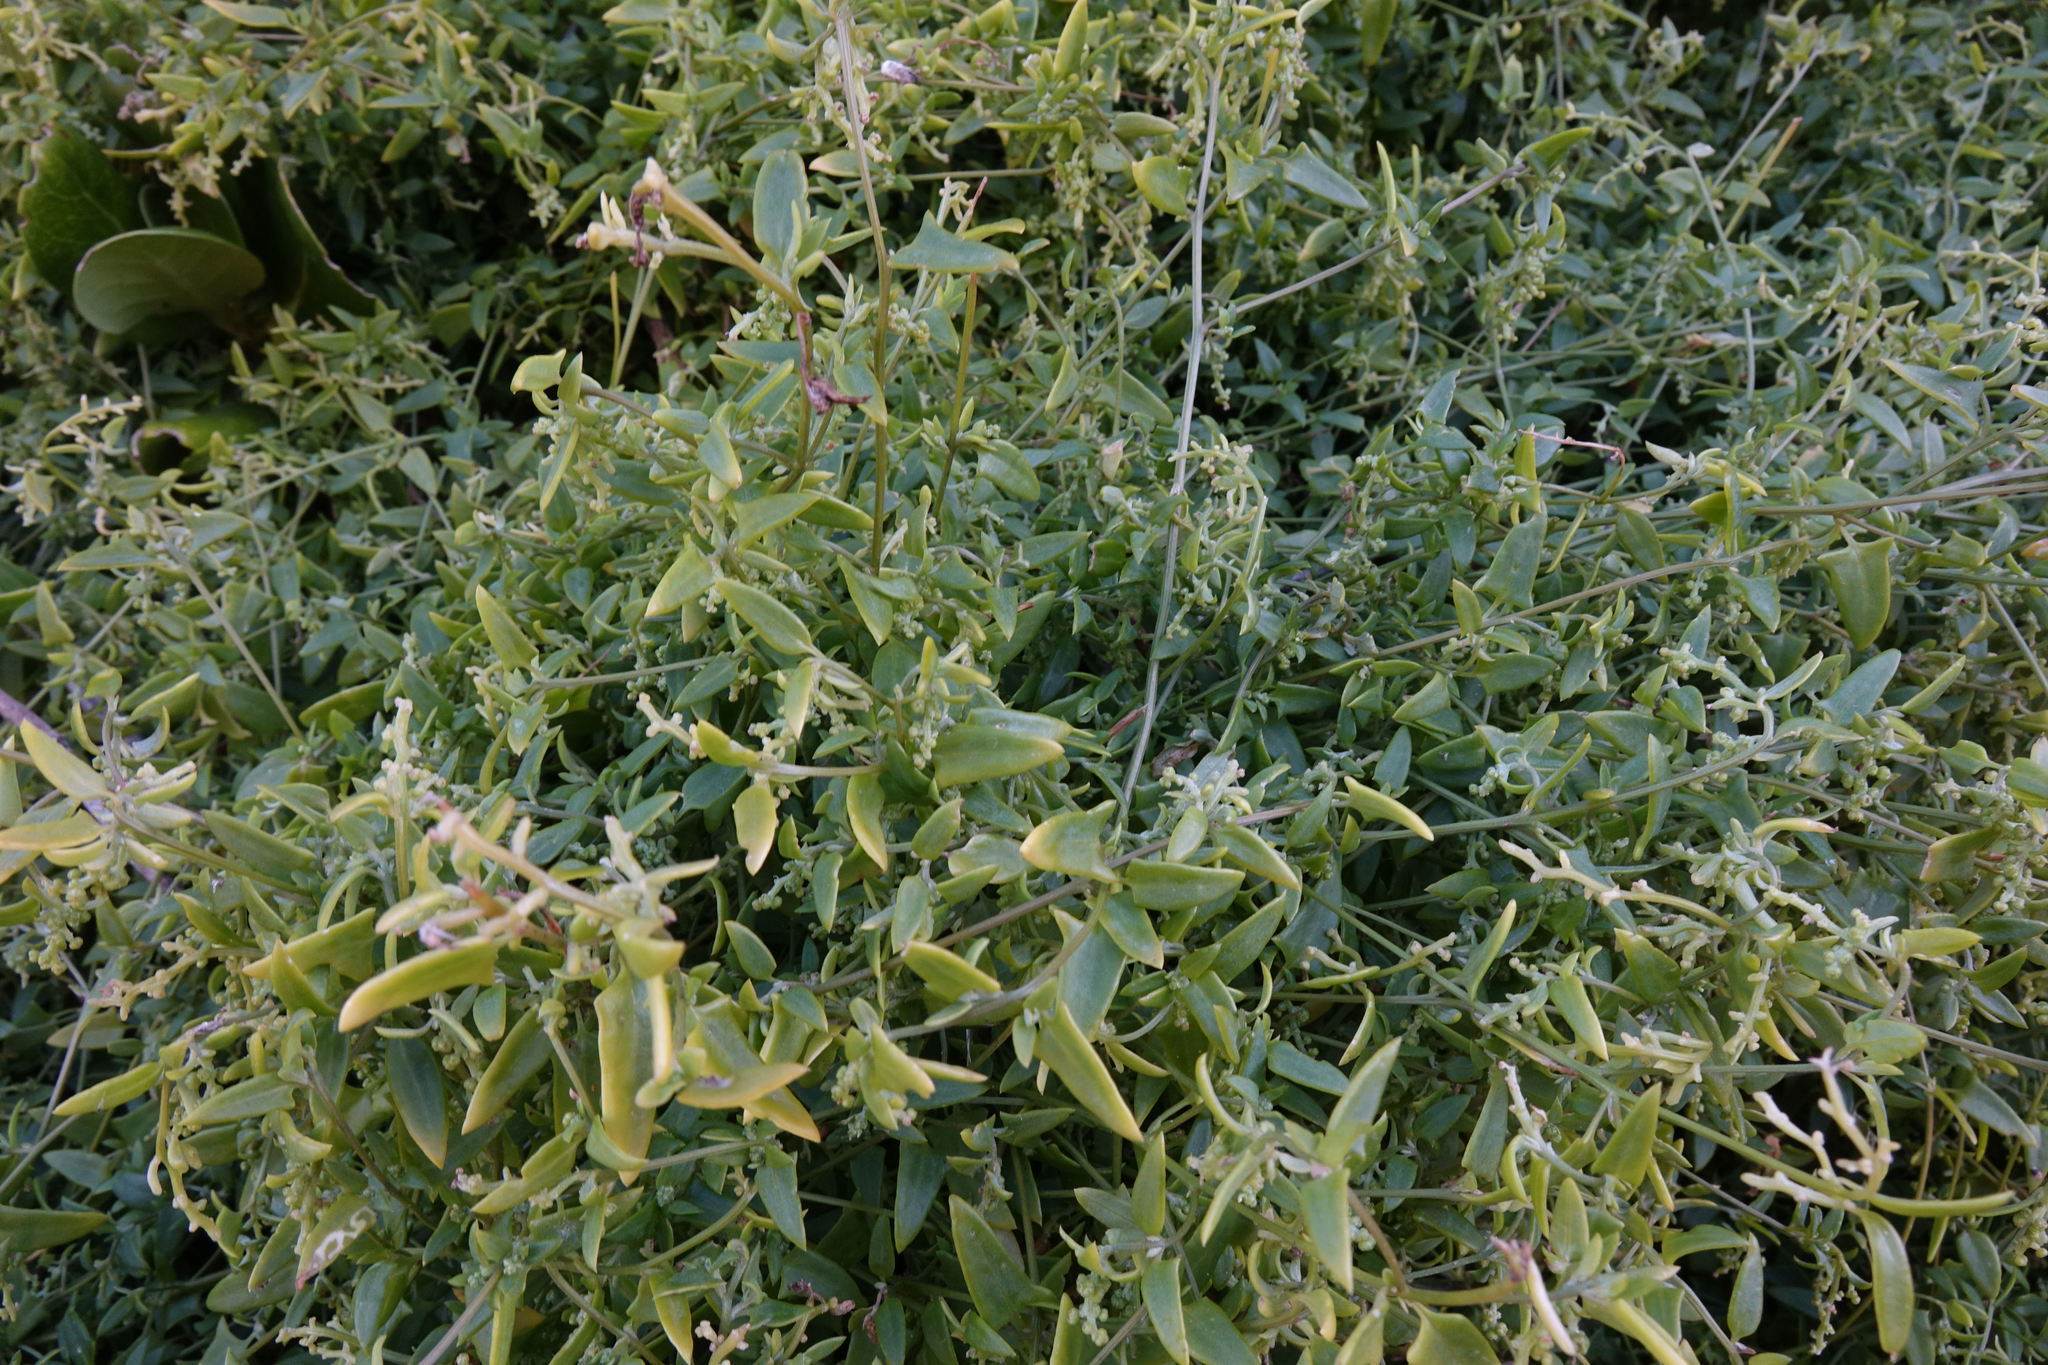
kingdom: Plantae
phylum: Tracheophyta
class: Magnoliopsida
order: Caryophyllales
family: Amaranthaceae
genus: Chenopodium
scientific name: Chenopodium nutans
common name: Climbing-saltbush
